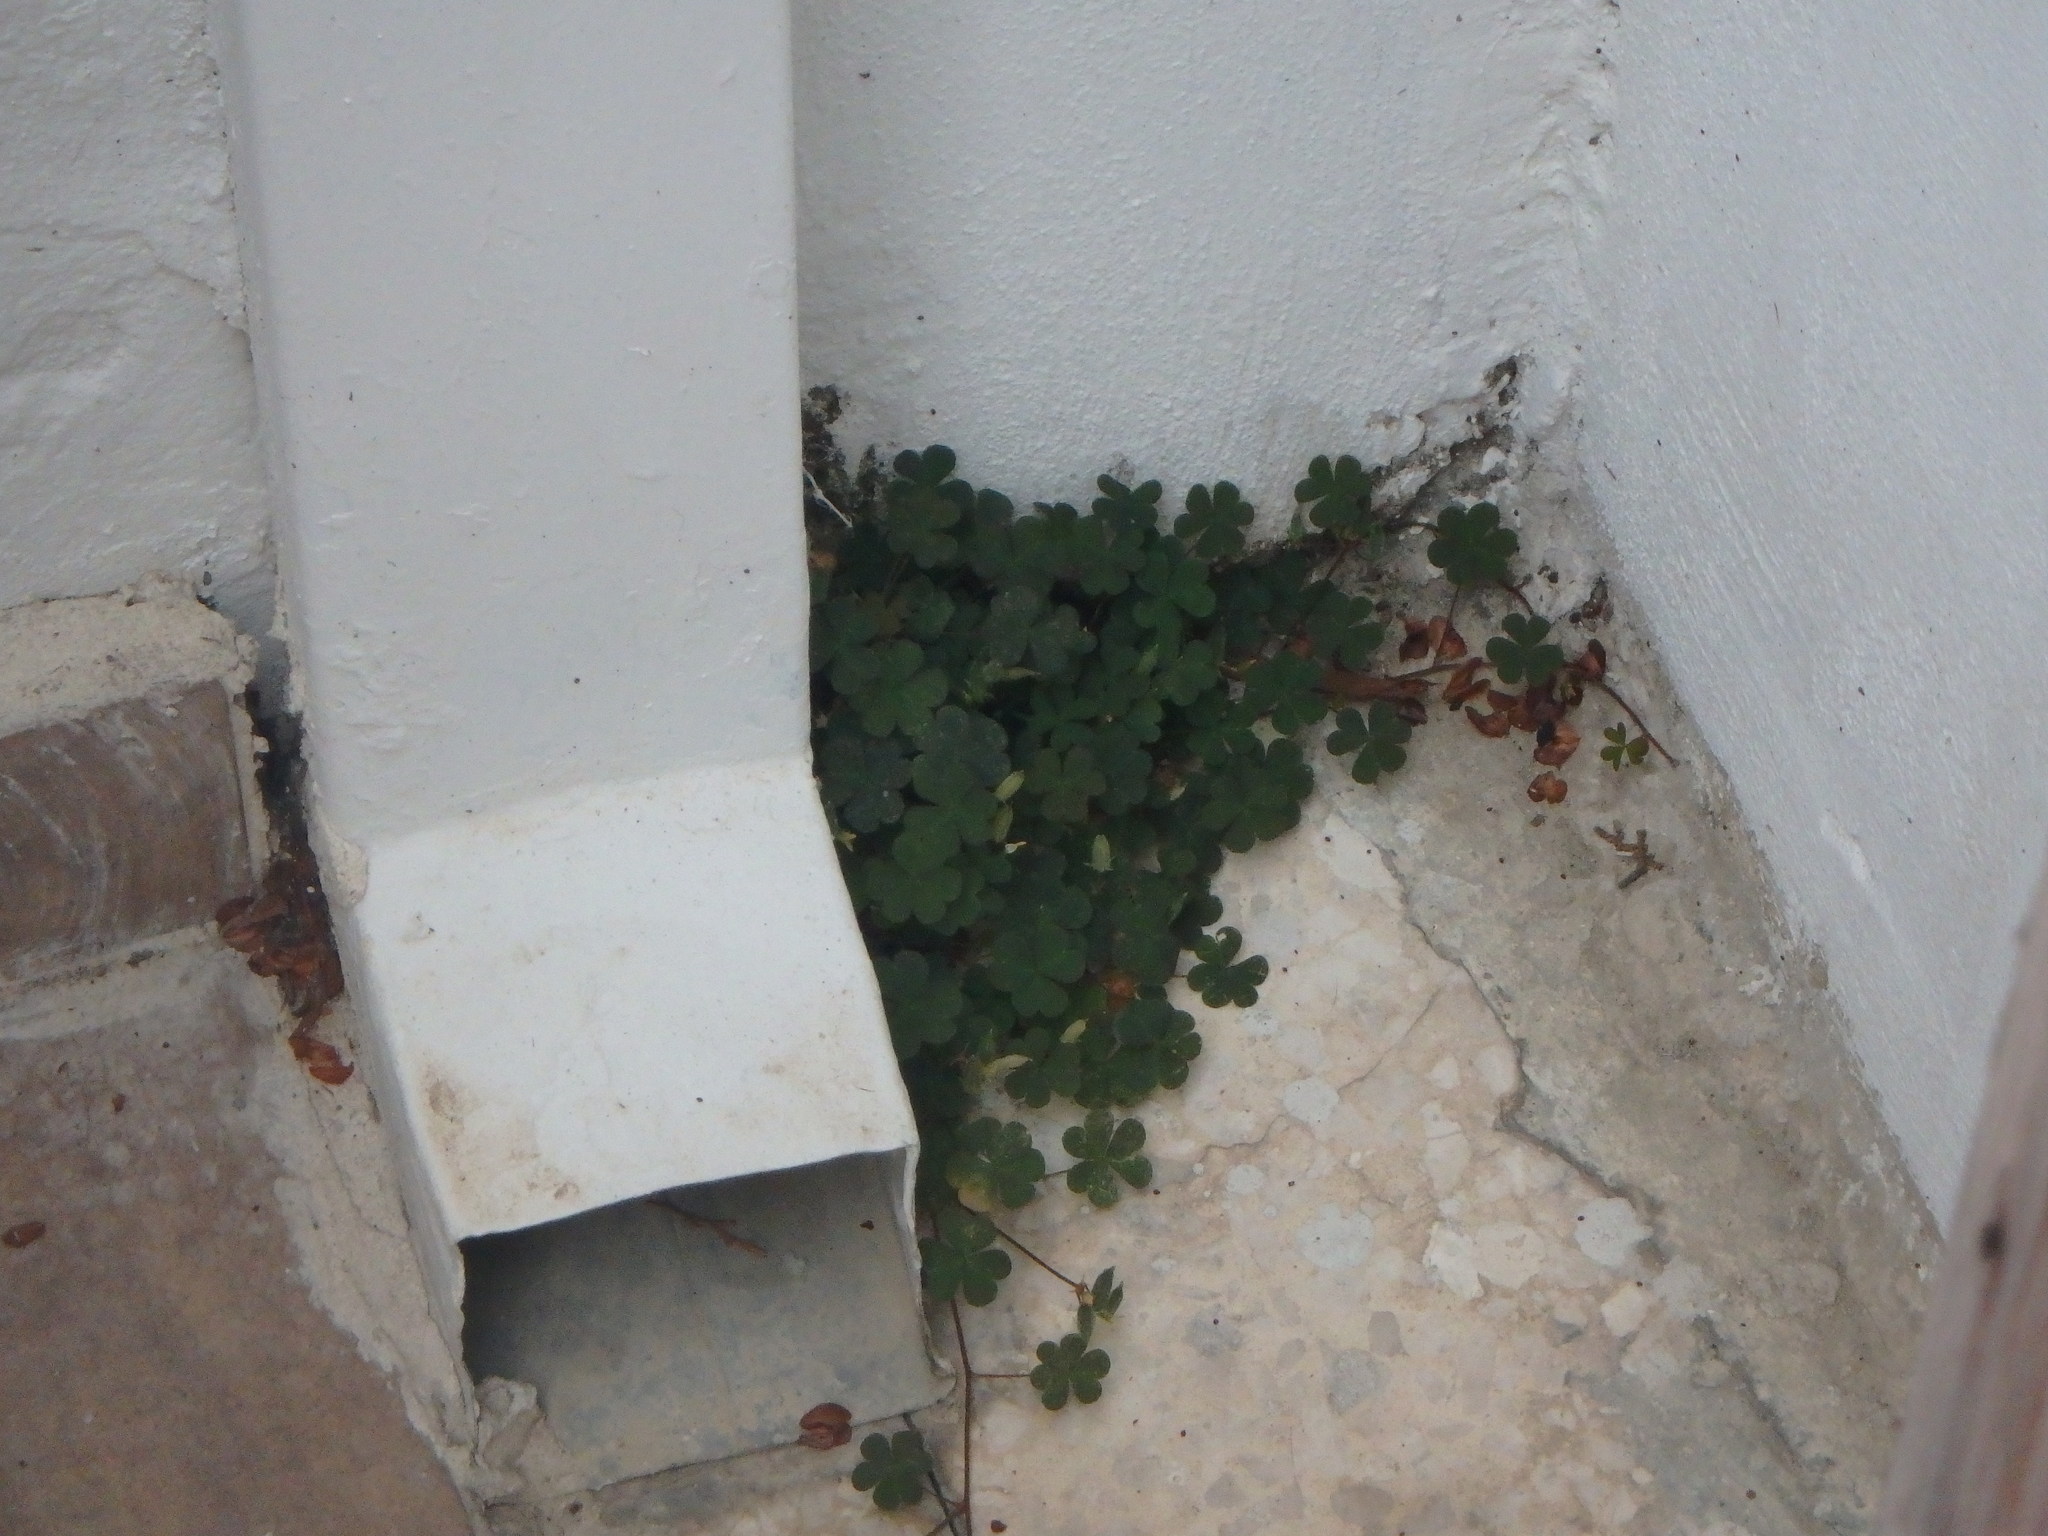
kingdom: Plantae
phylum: Tracheophyta
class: Magnoliopsida
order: Oxalidales
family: Oxalidaceae
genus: Oxalis
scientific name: Oxalis corniculata
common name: Procumbent yellow-sorrel
